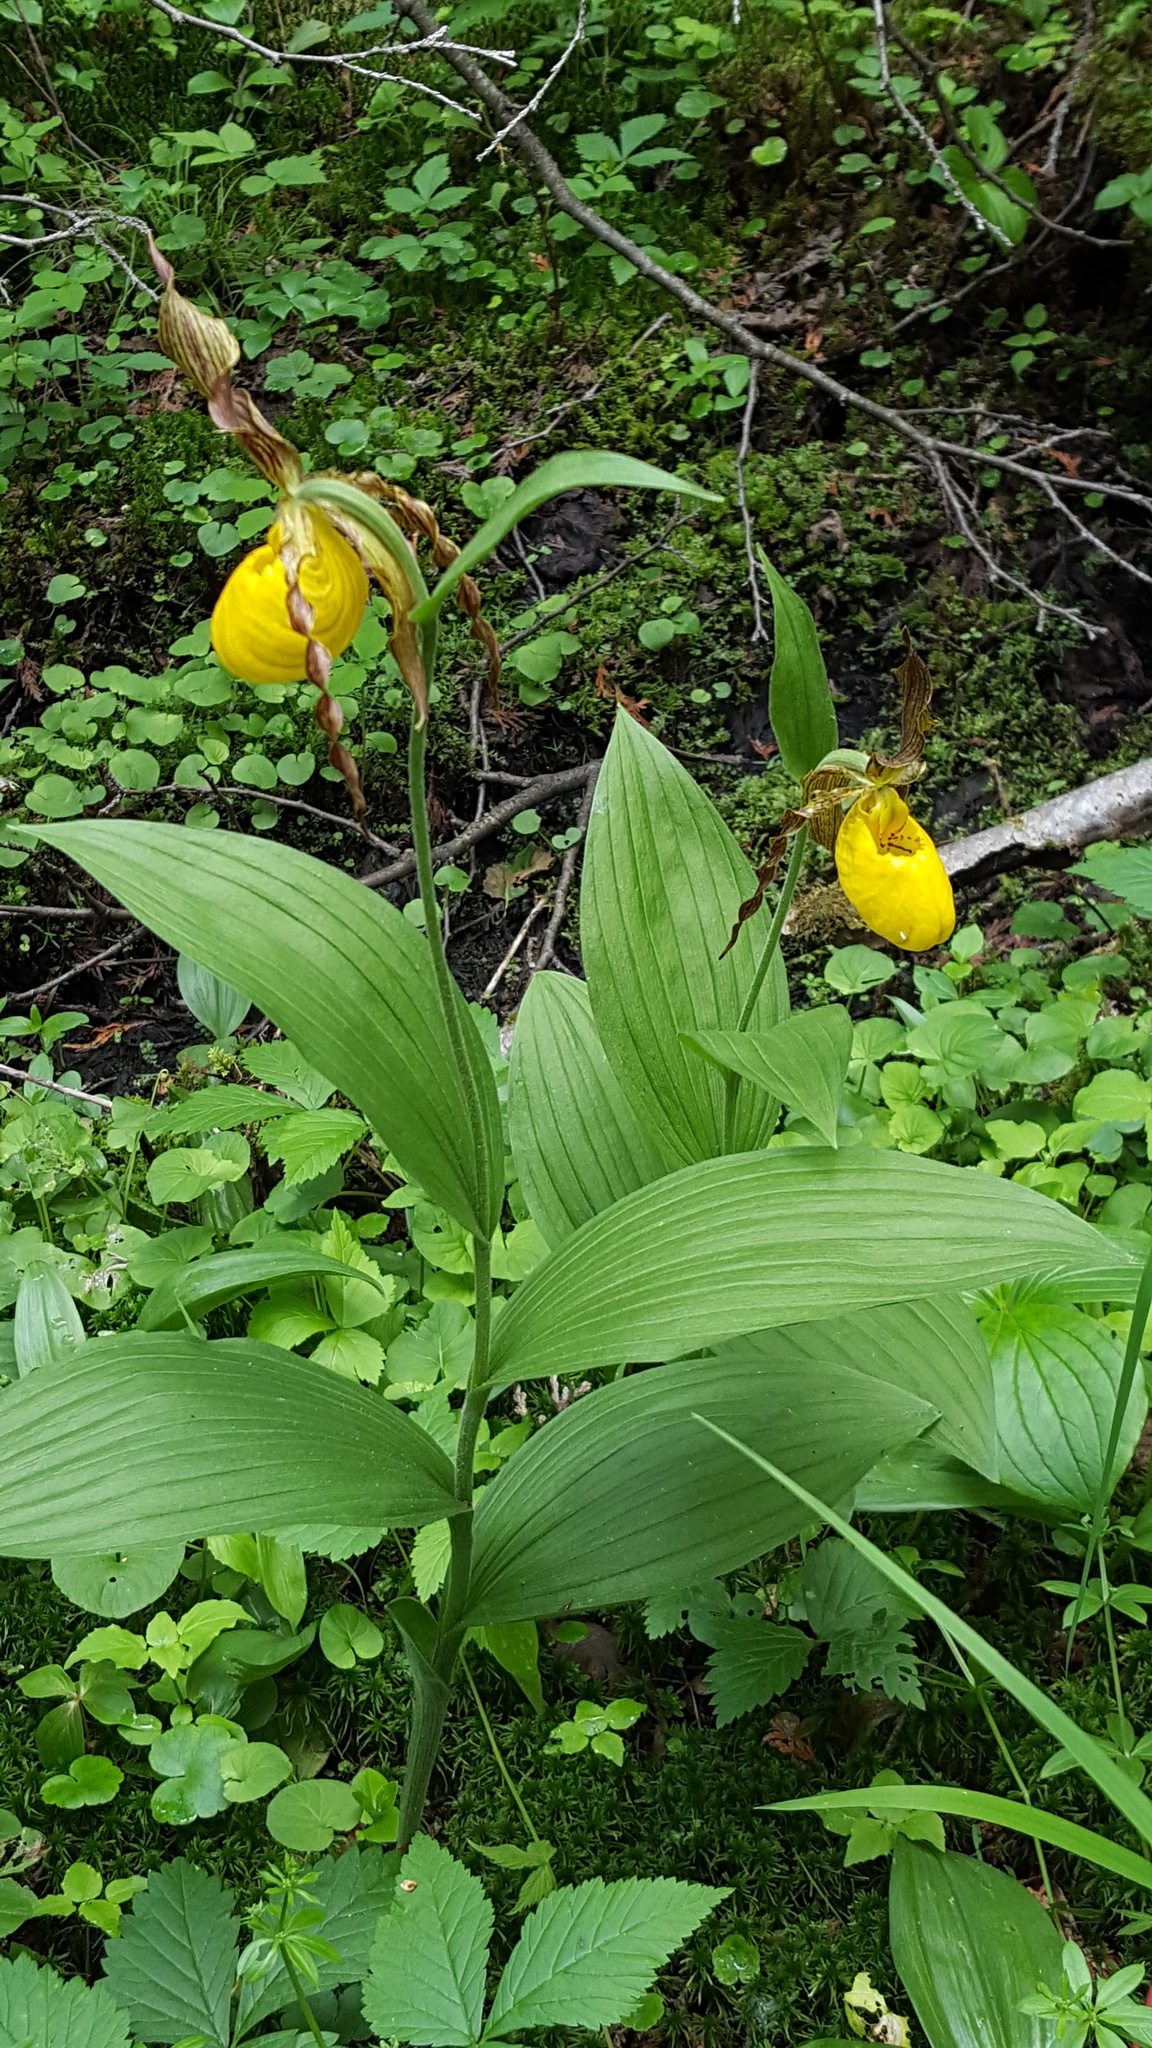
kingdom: Plantae
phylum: Tracheophyta
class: Liliopsida
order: Asparagales
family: Orchidaceae
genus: Cypripedium
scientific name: Cypripedium parviflorum
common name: American yellow lady's-slipper
